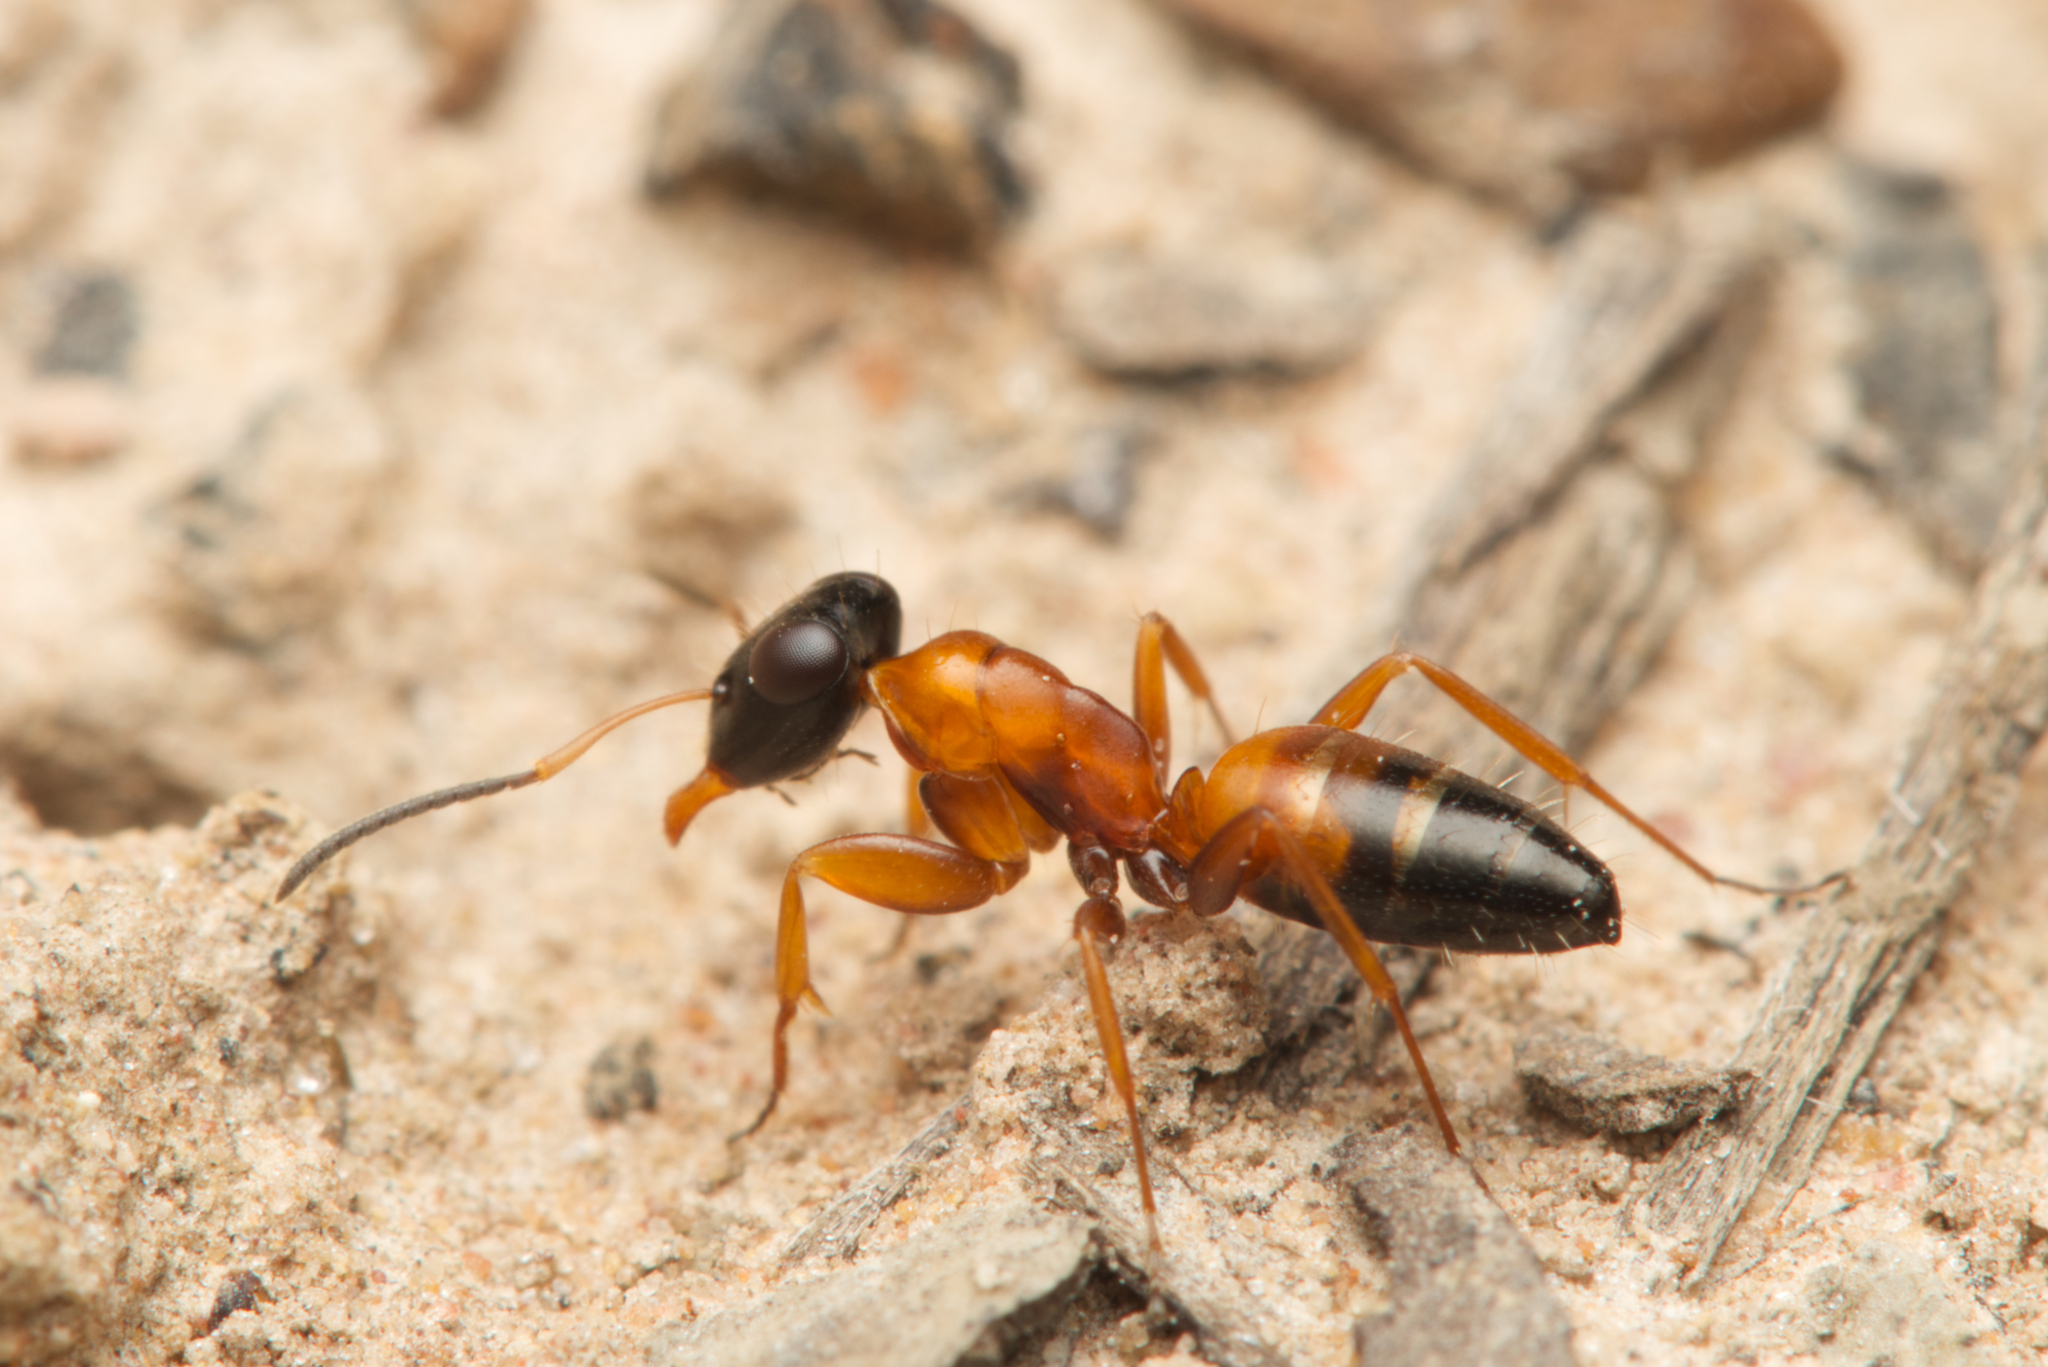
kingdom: Animalia
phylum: Arthropoda
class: Insecta
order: Hymenoptera
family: Formicidae
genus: Opisthopsis
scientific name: Opisthopsis rufithorax
